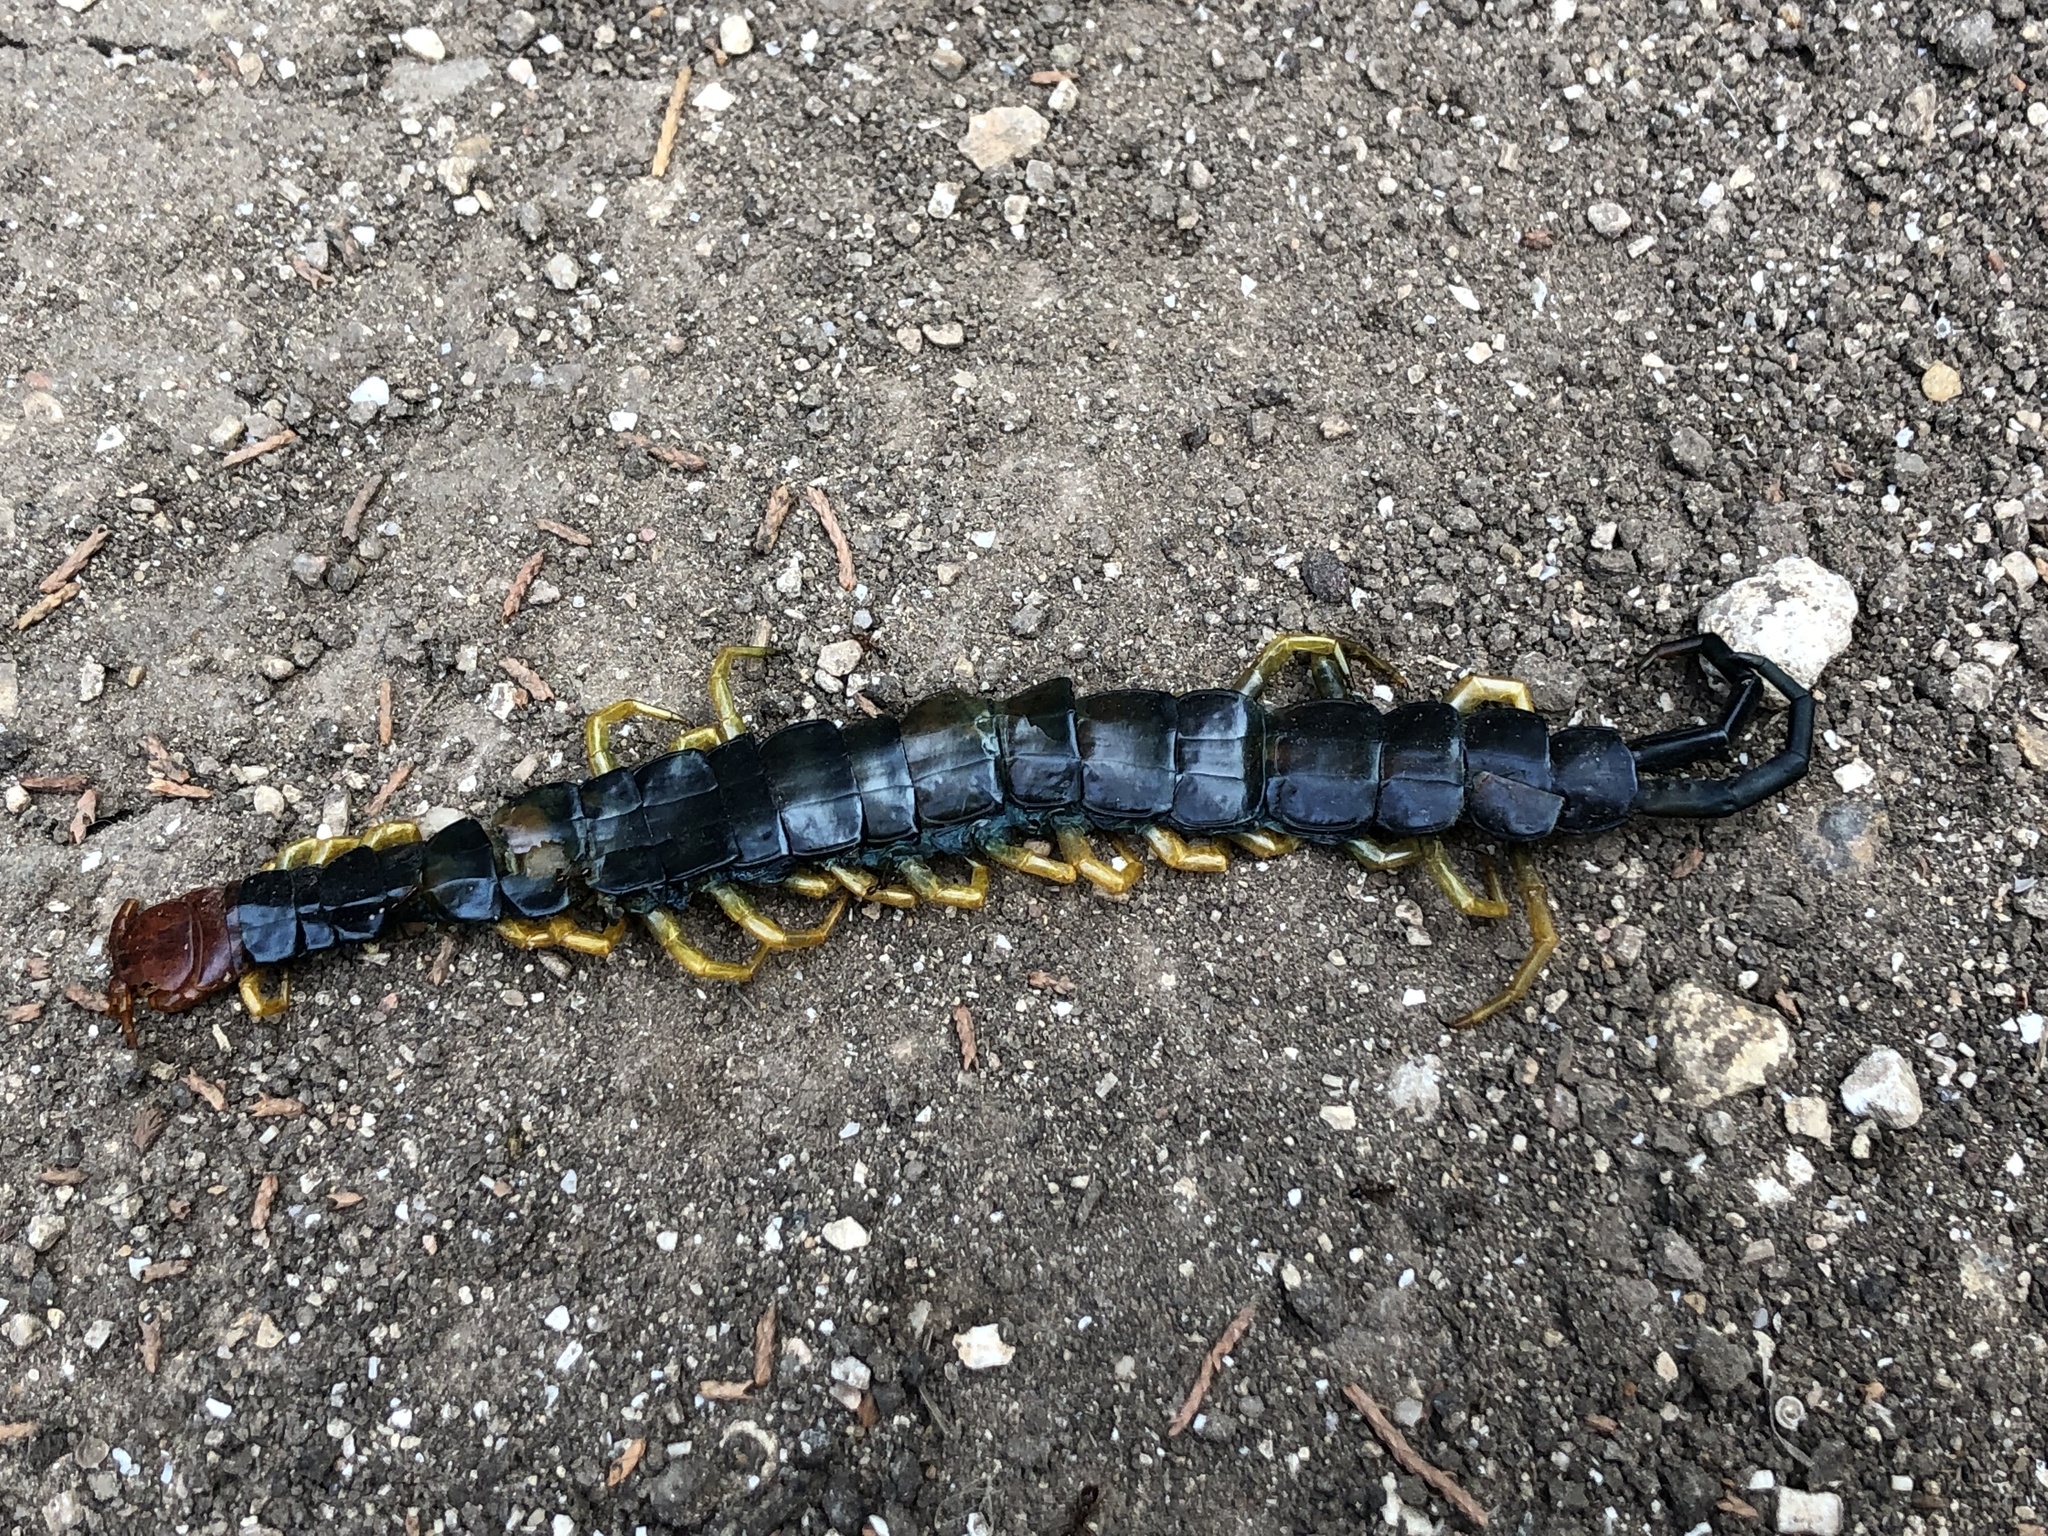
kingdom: Animalia
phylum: Arthropoda
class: Chilopoda
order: Scolopendromorpha
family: Scolopendridae
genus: Scolopendra
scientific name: Scolopendra heros
